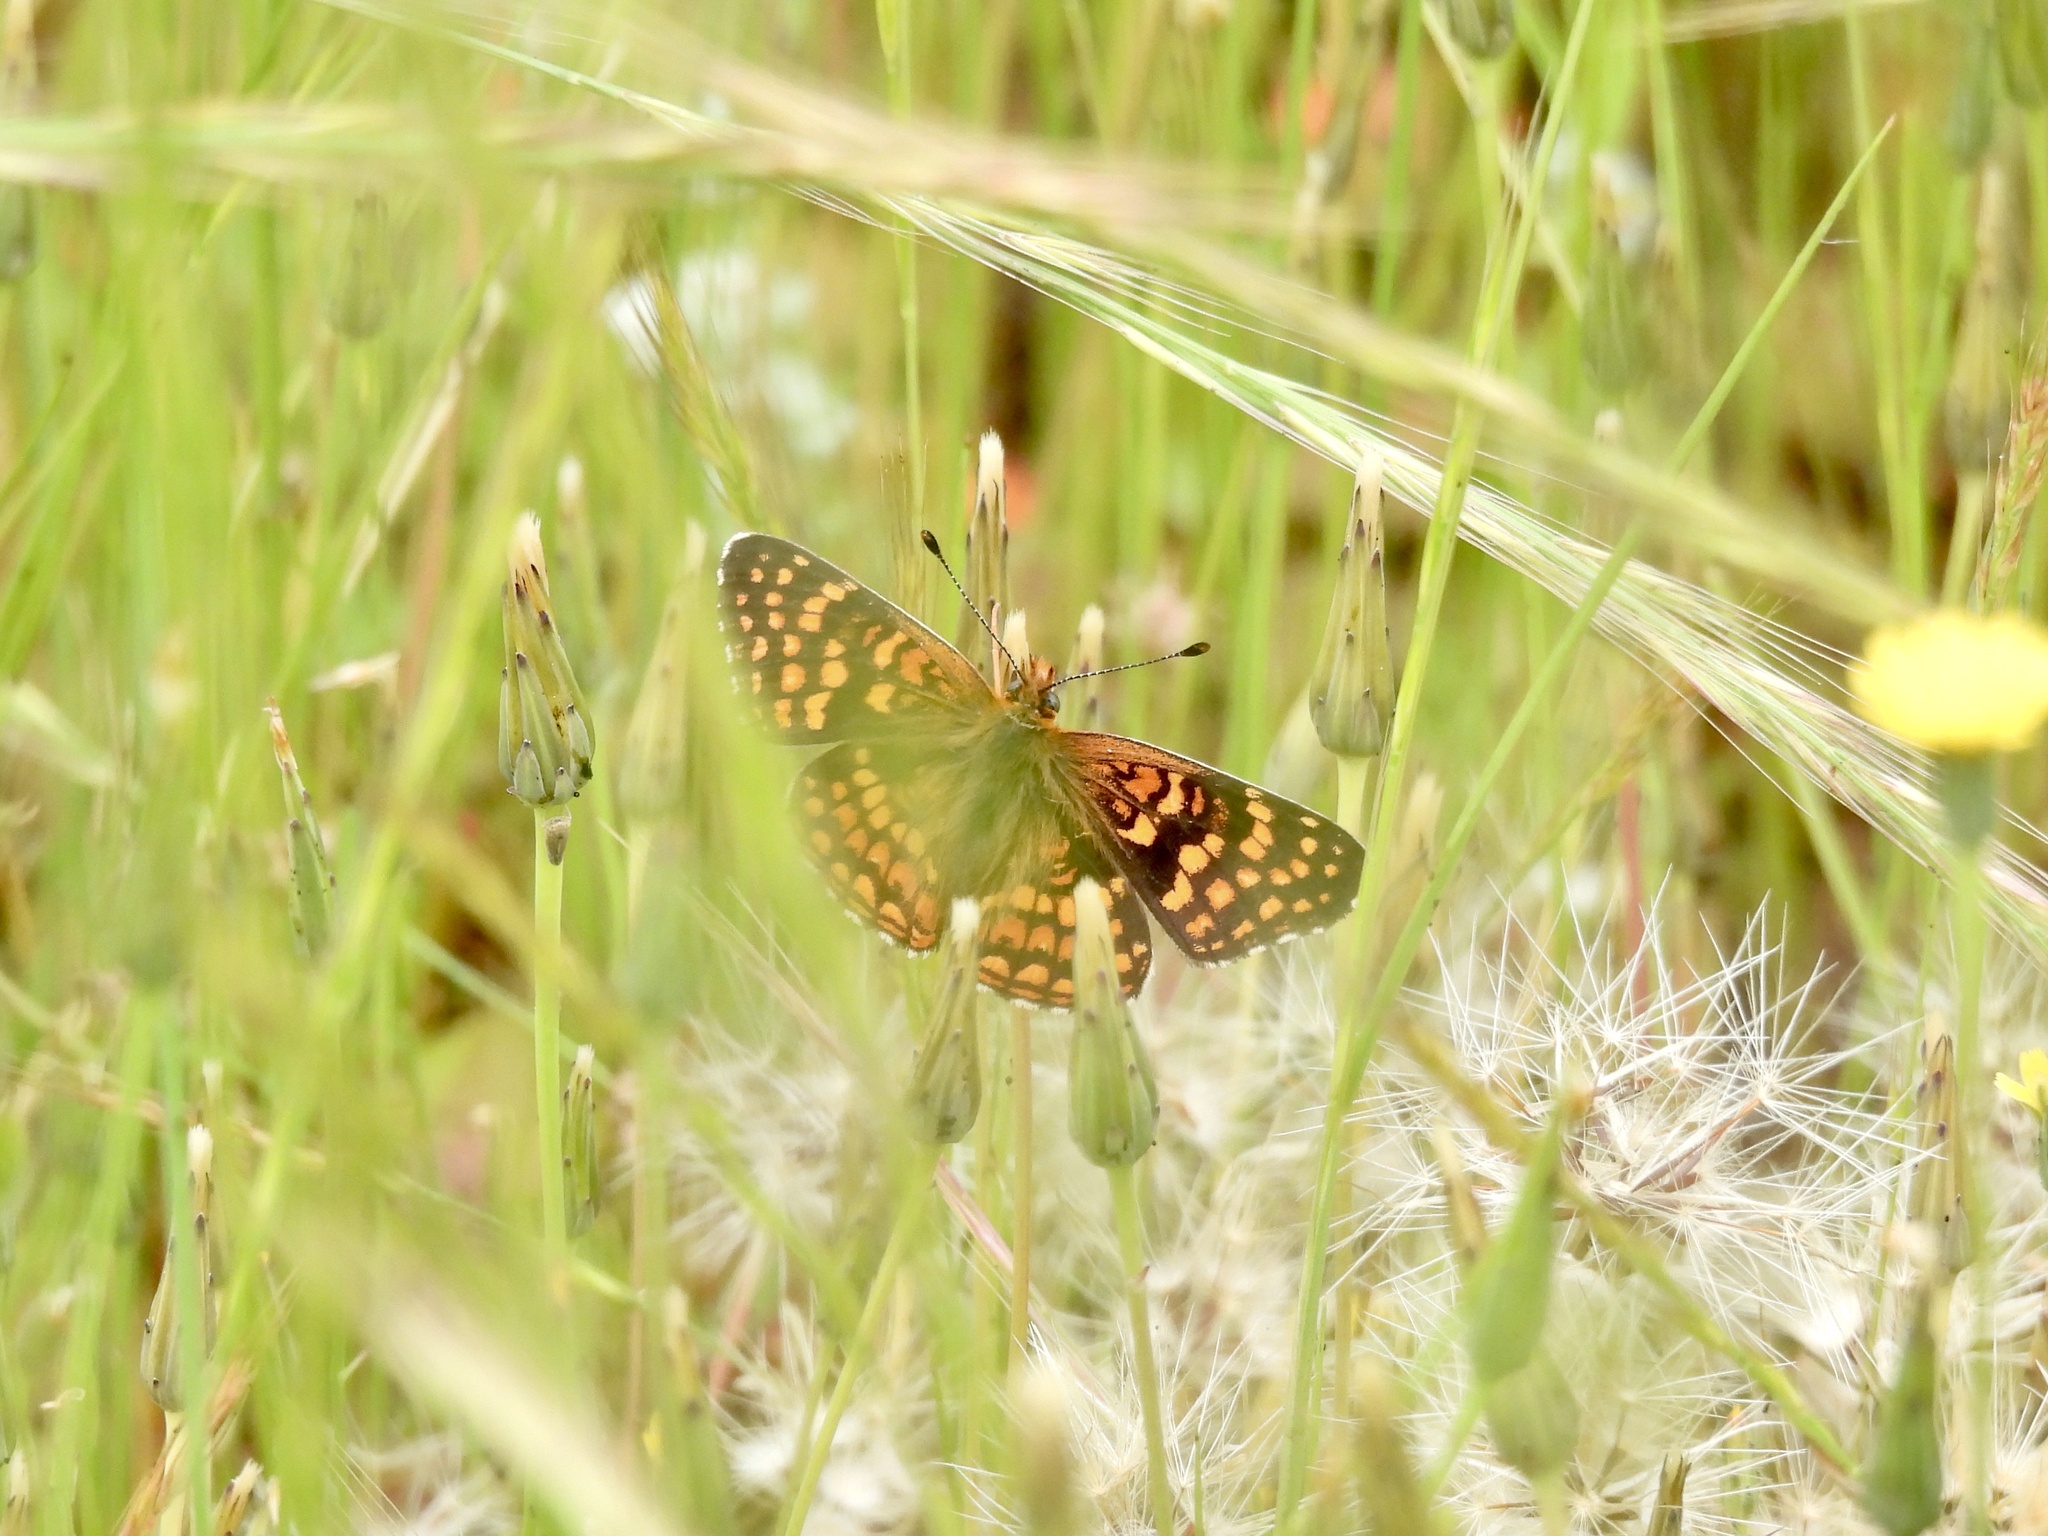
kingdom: Animalia
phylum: Arthropoda
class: Insecta
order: Lepidoptera
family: Nymphalidae
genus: Chlosyne
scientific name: Chlosyne gabbii
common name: Gabb's checkerspot
